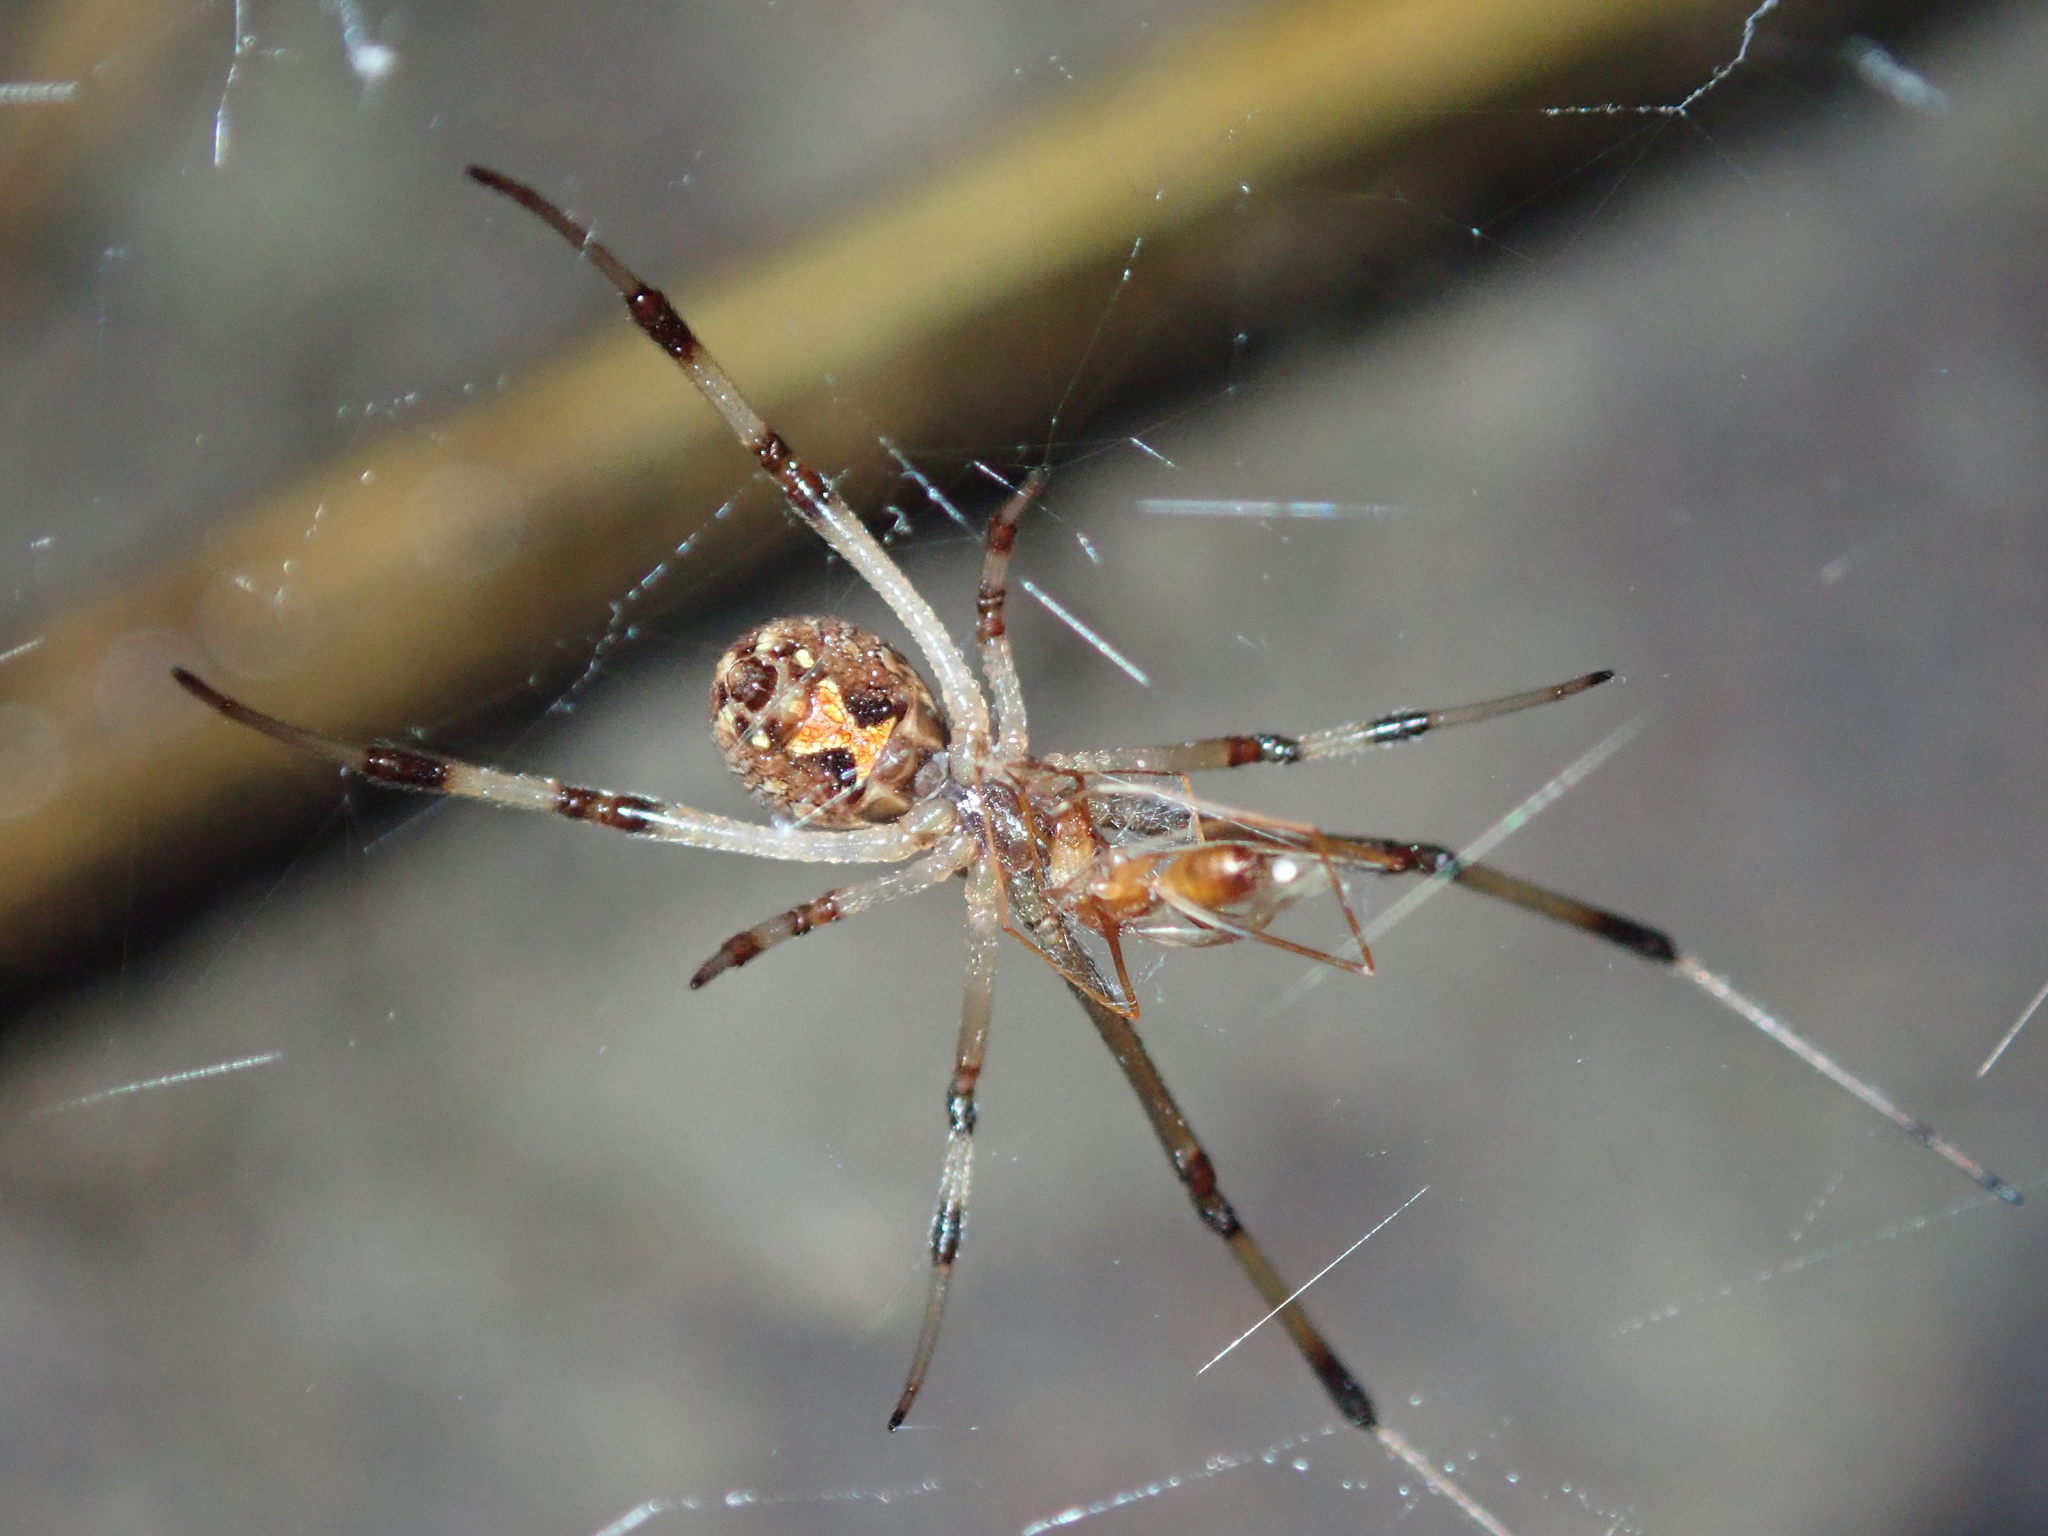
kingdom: Animalia
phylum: Arthropoda
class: Arachnida
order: Araneae
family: Theridiidae
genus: Latrodectus
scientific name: Latrodectus geometricus
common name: Brown widow spider
